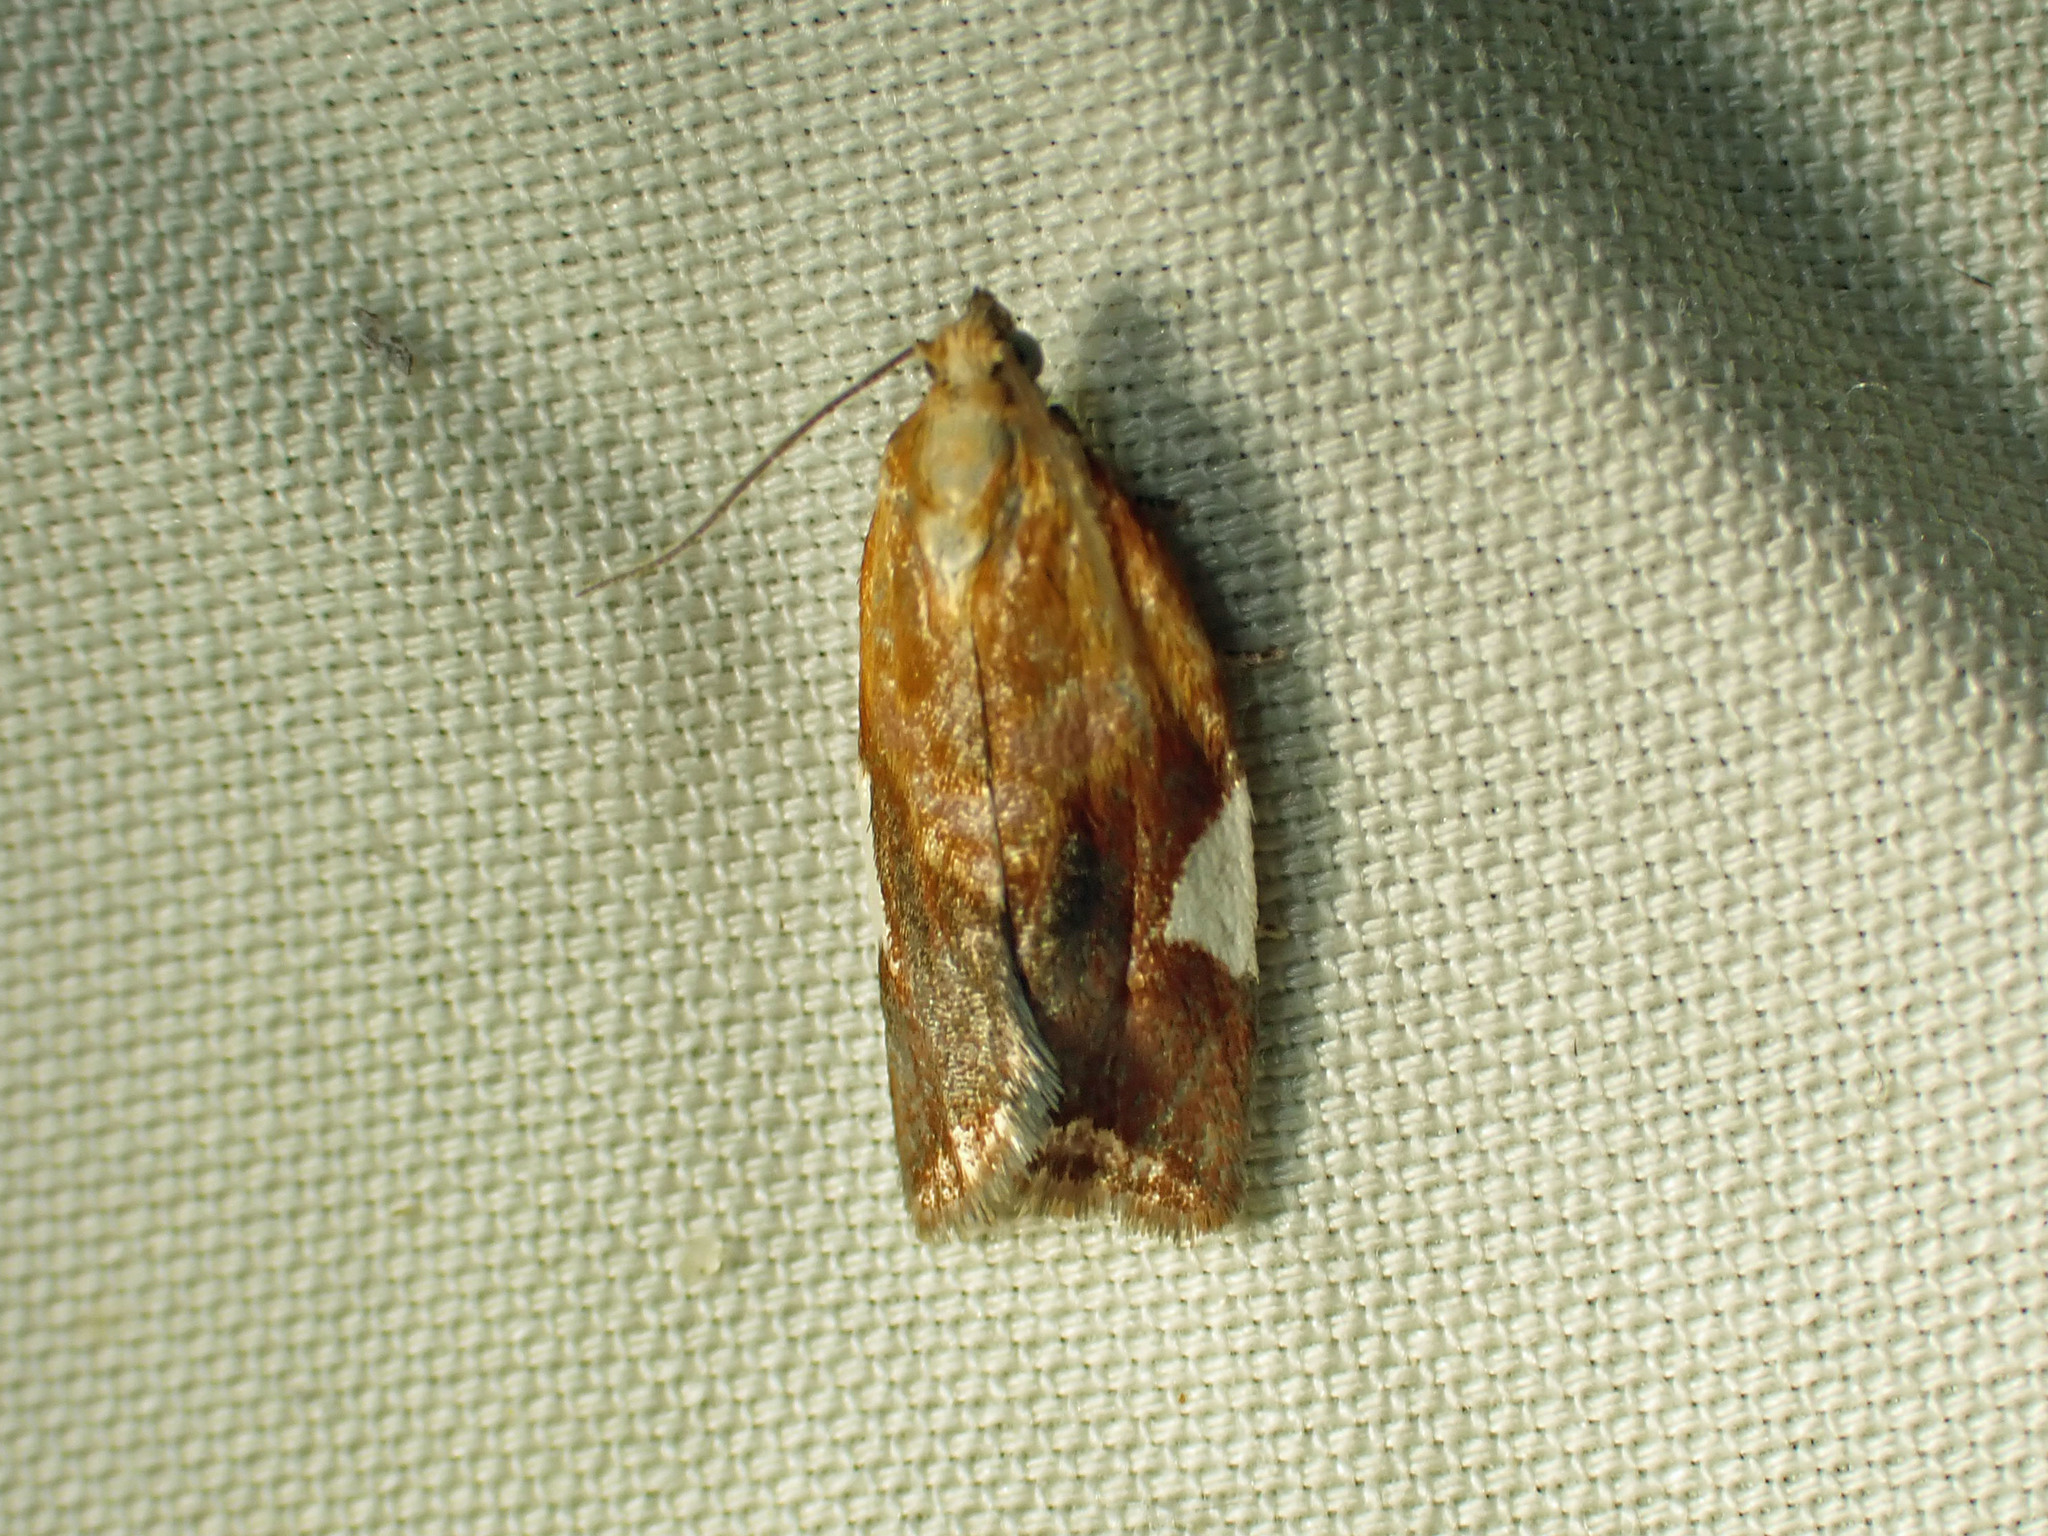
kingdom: Animalia
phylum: Arthropoda
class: Insecta
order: Lepidoptera
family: Tortricidae
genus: Clepsis
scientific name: Clepsis persicana
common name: White triangle tortrix
